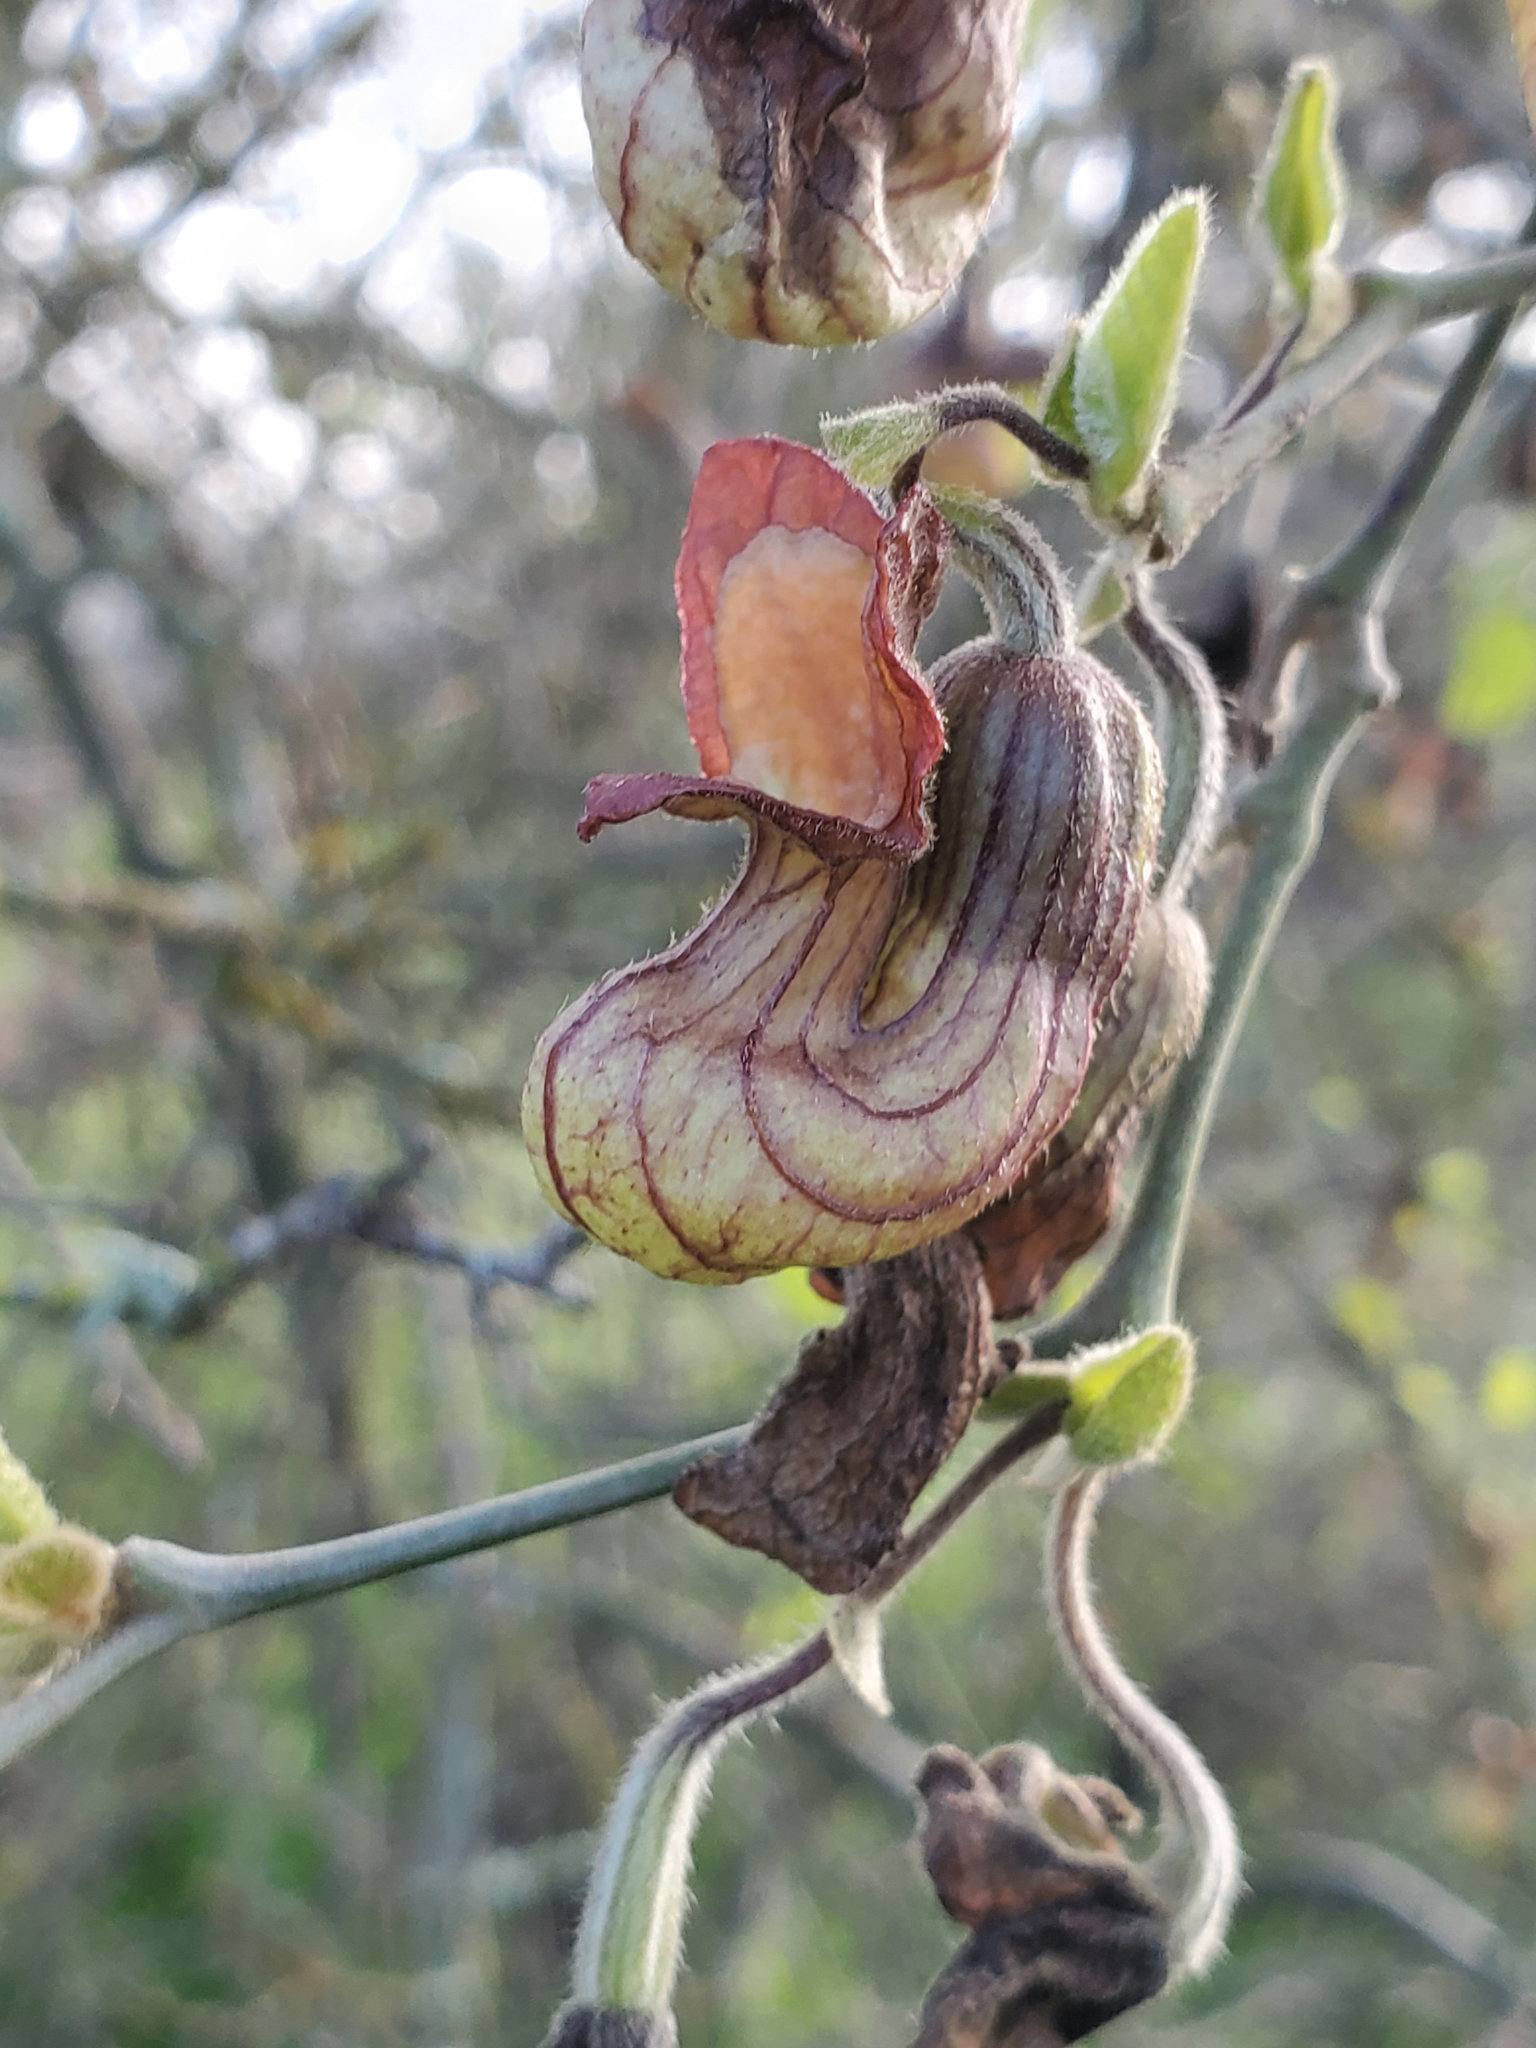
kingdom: Plantae
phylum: Tracheophyta
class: Magnoliopsida
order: Piperales
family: Aristolochiaceae
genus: Isotrema
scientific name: Isotrema californicum
